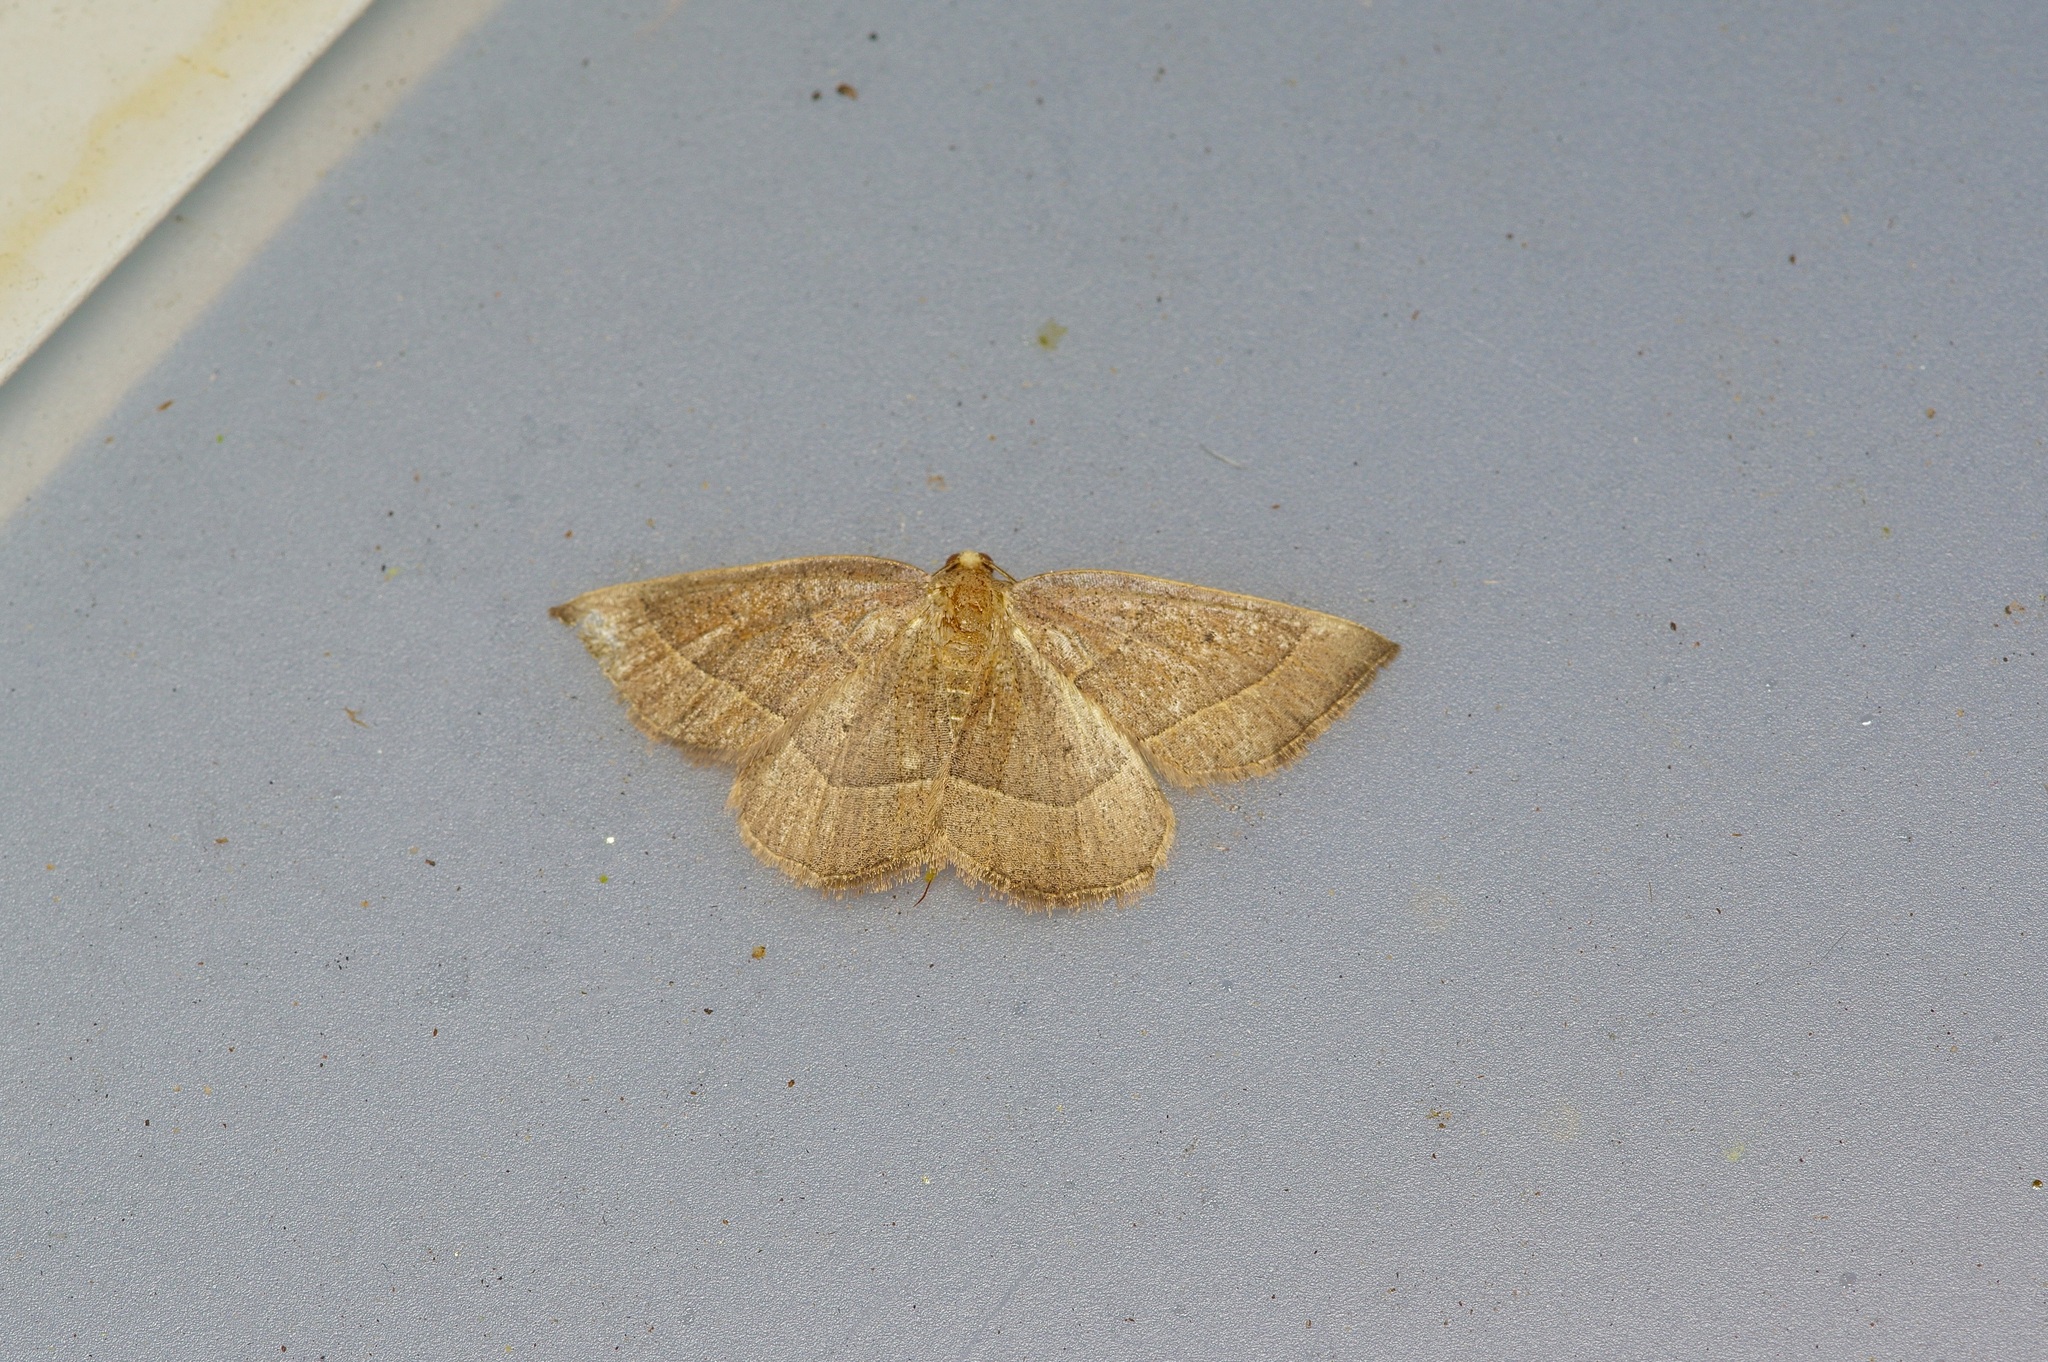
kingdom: Animalia
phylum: Arthropoda
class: Insecta
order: Lepidoptera
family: Geometridae
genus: Episemasia
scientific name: Episemasia cervinaria
